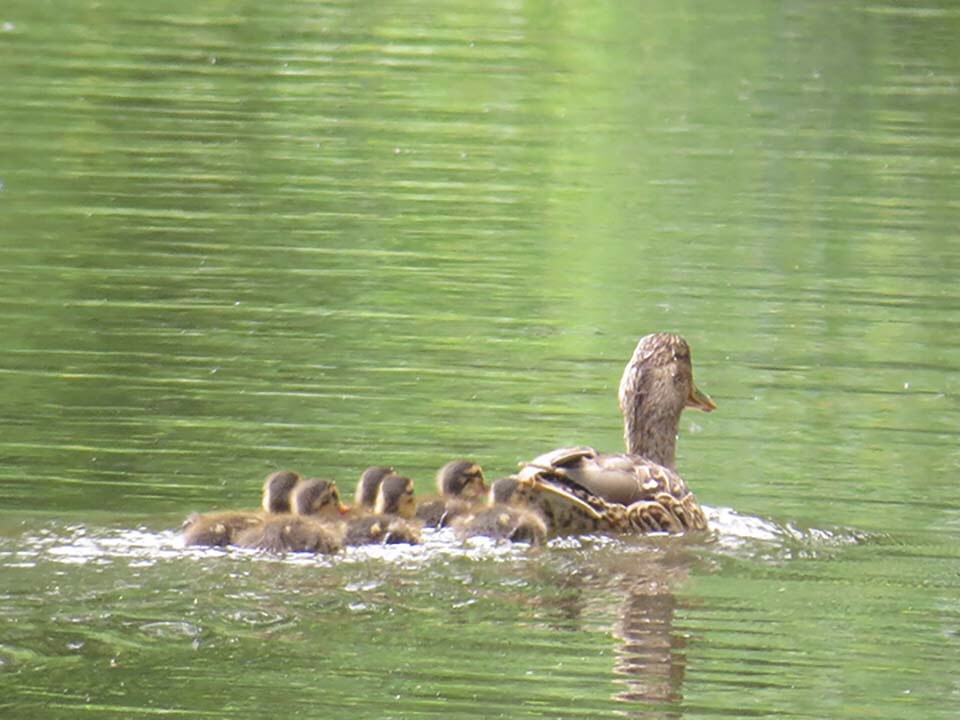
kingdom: Animalia
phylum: Chordata
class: Aves
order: Anseriformes
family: Anatidae
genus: Anas
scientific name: Anas platyrhynchos
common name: Mallard
